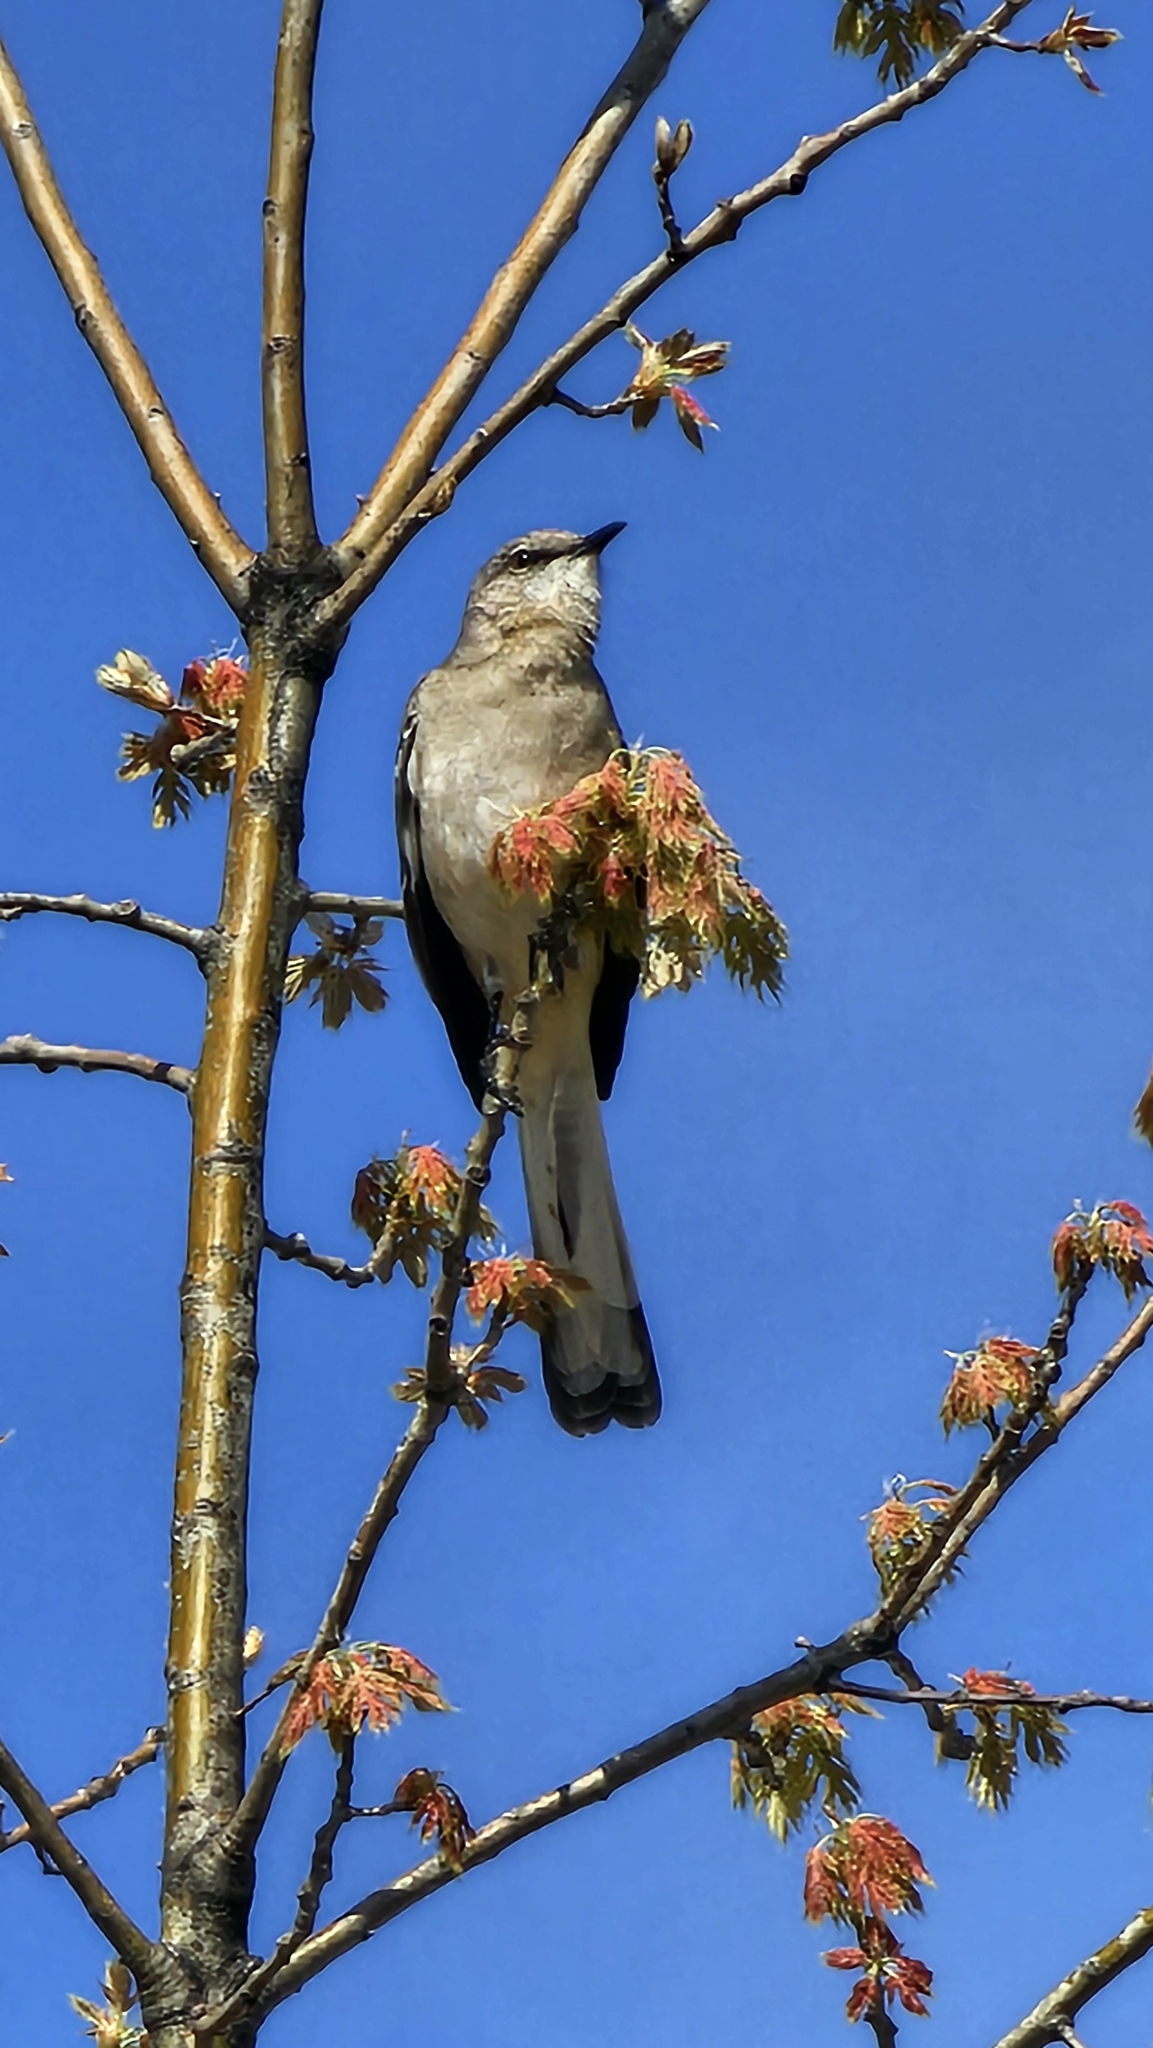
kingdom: Animalia
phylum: Chordata
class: Aves
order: Passeriformes
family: Mimidae
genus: Mimus
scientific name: Mimus polyglottos
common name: Northern mockingbird
